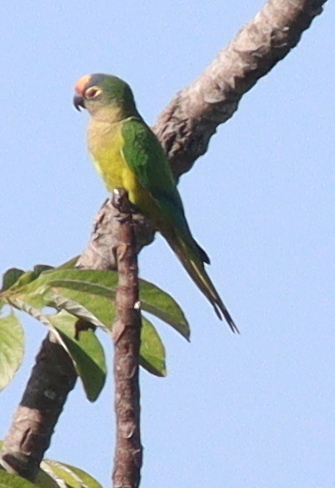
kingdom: Animalia
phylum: Chordata
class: Aves
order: Psittaciformes
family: Psittacidae
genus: Aratinga
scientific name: Aratinga aurea
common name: Peach-fronted parakeet
